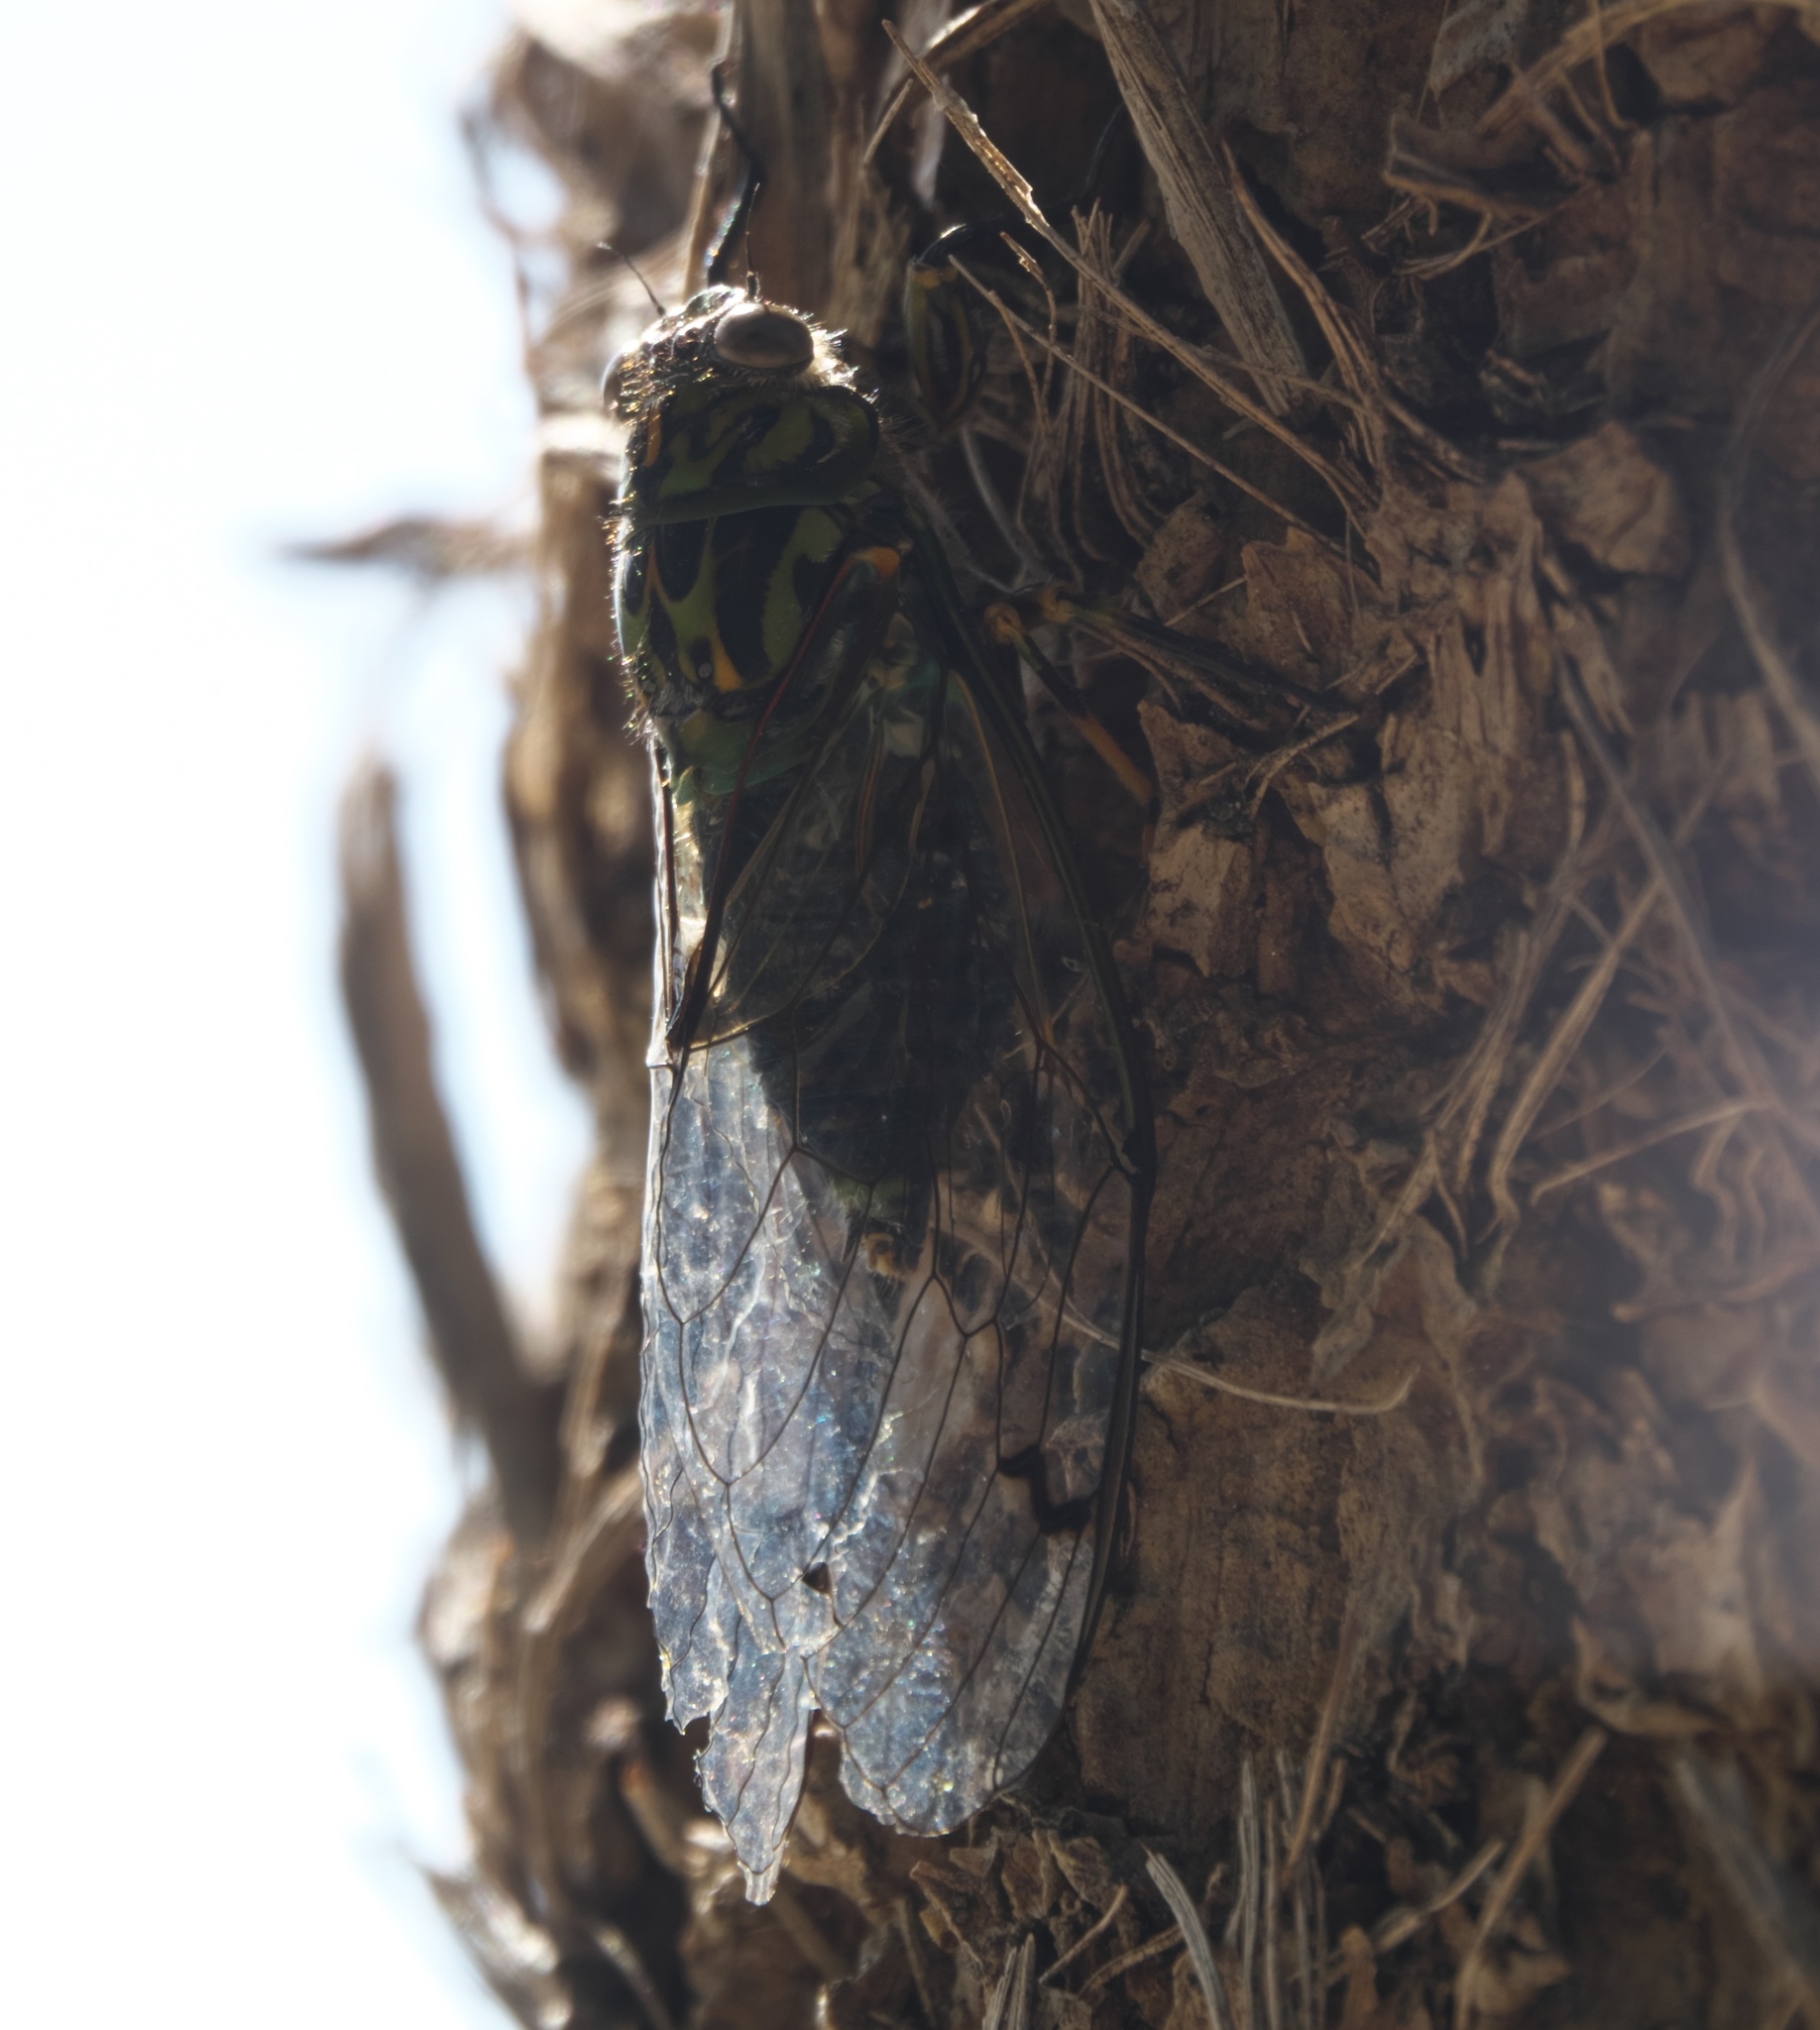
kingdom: Animalia
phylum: Arthropoda
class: Insecta
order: Hemiptera
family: Cicadidae
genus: Amphipsalta
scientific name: Amphipsalta zelandica
